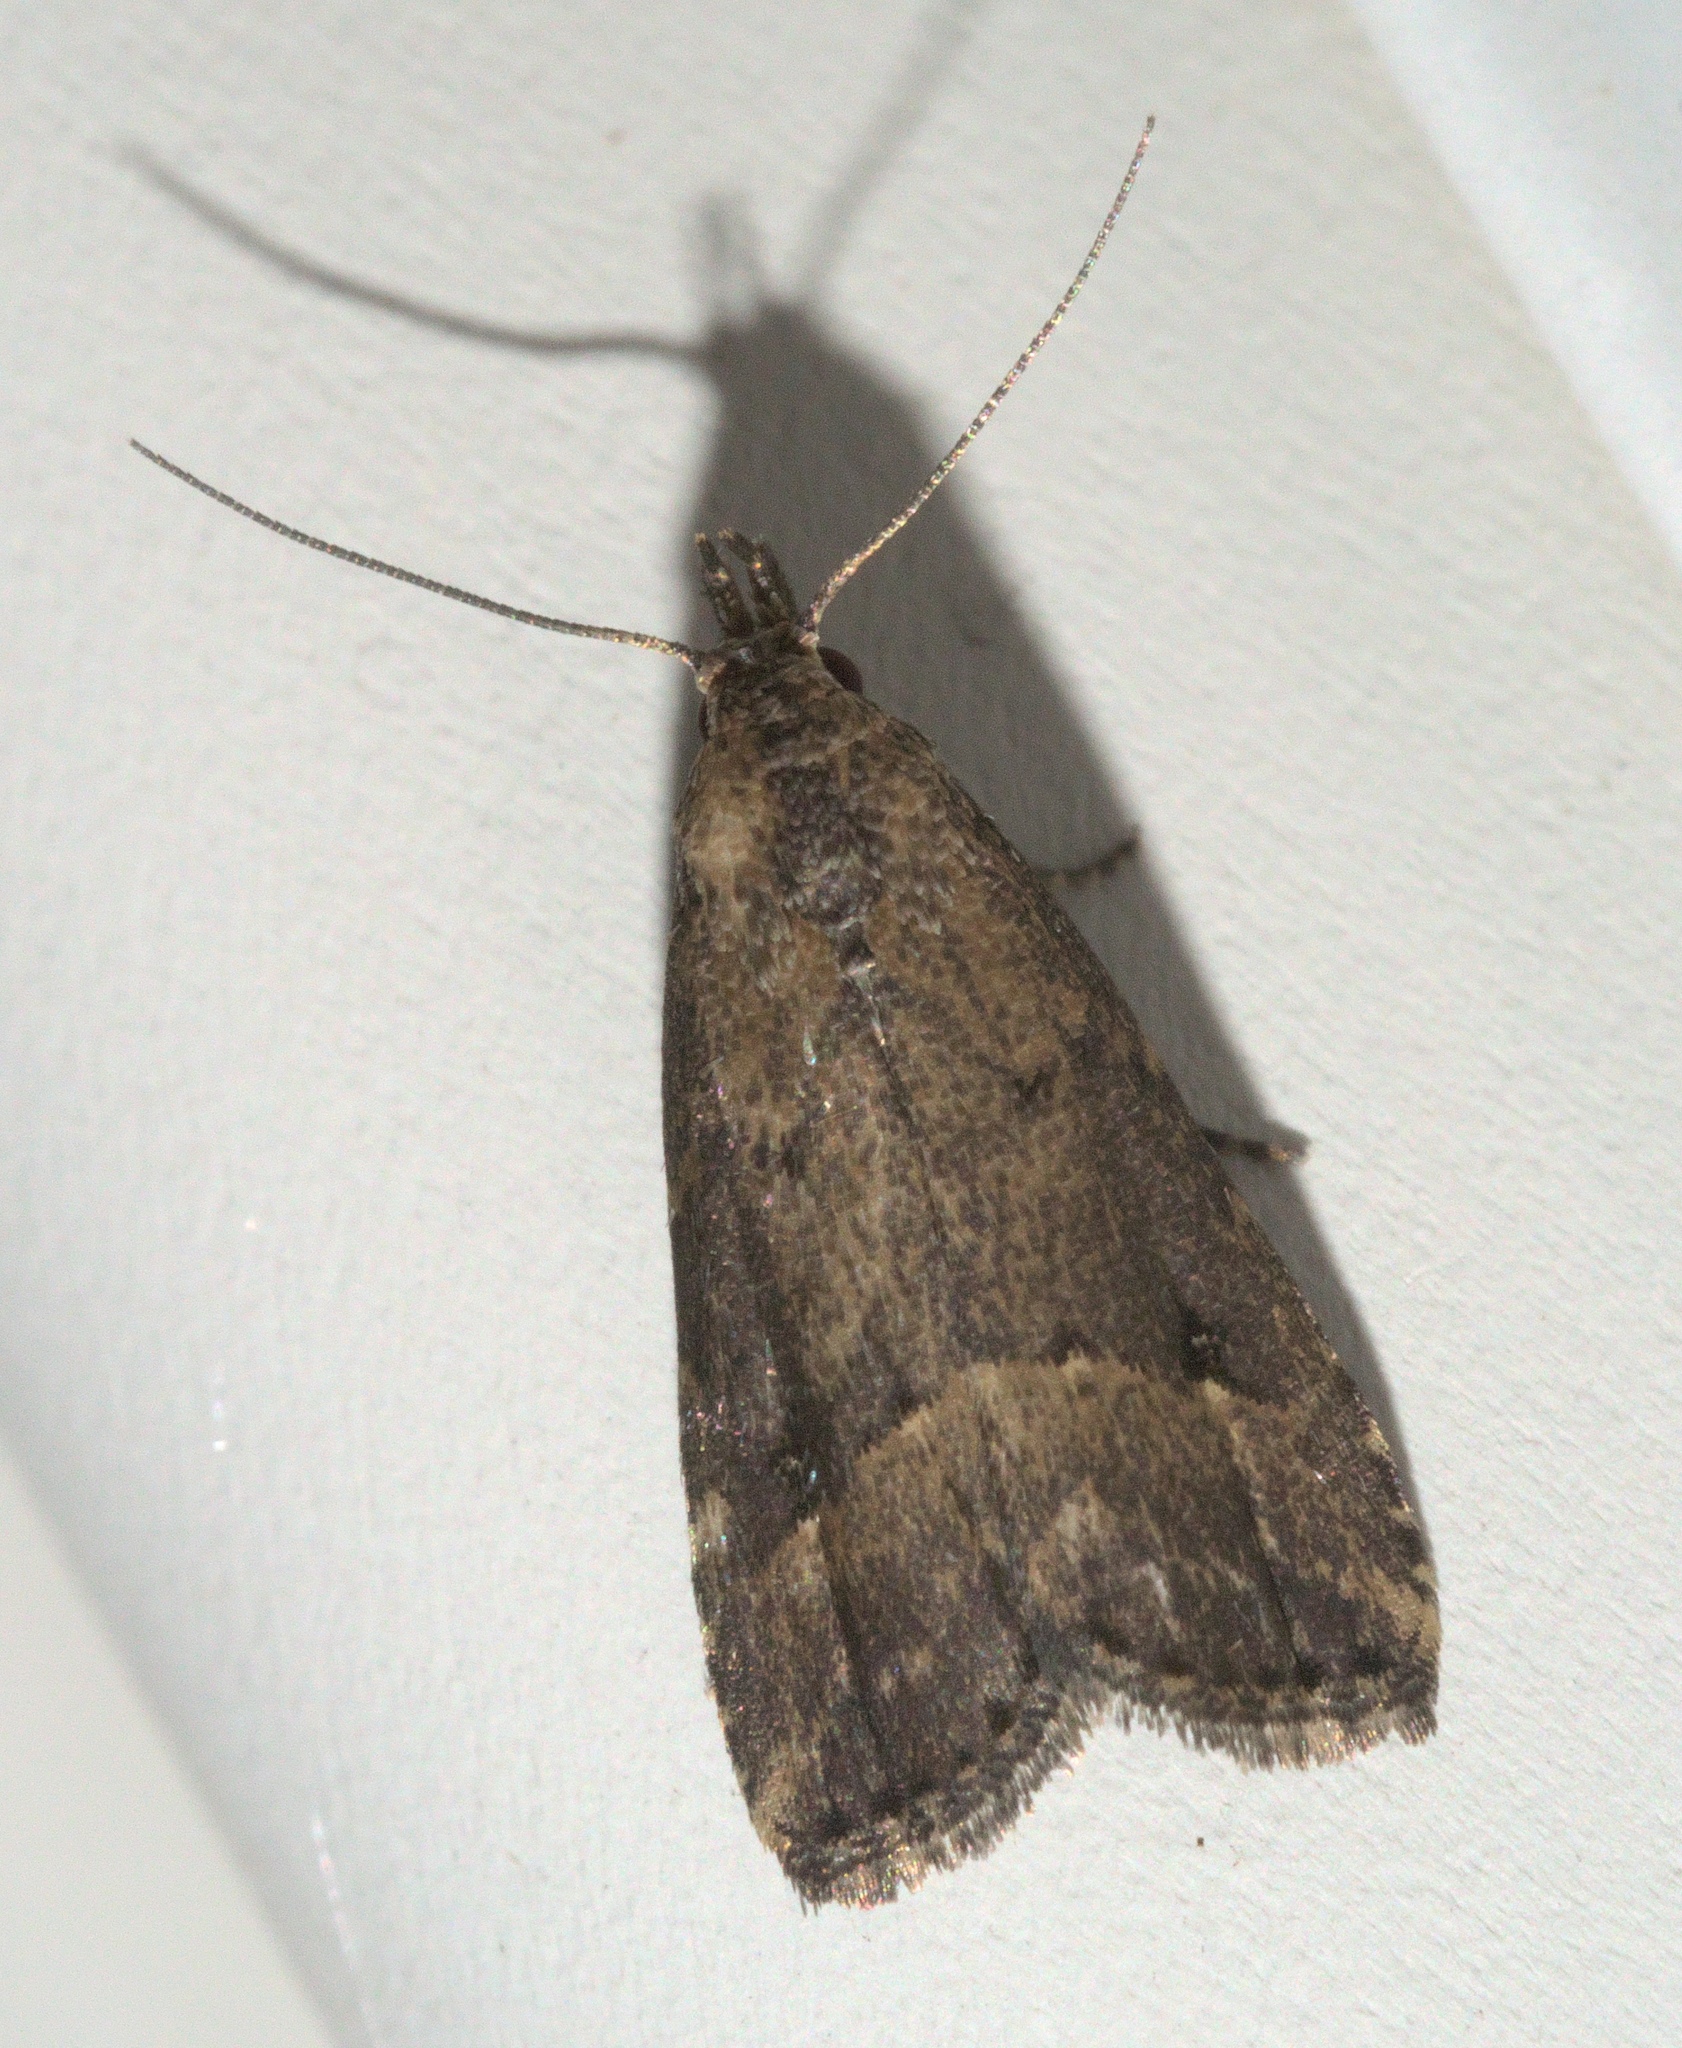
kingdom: Animalia
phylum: Arthropoda
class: Insecta
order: Lepidoptera
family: Erebidae
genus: Schrankia
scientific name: Schrankia
